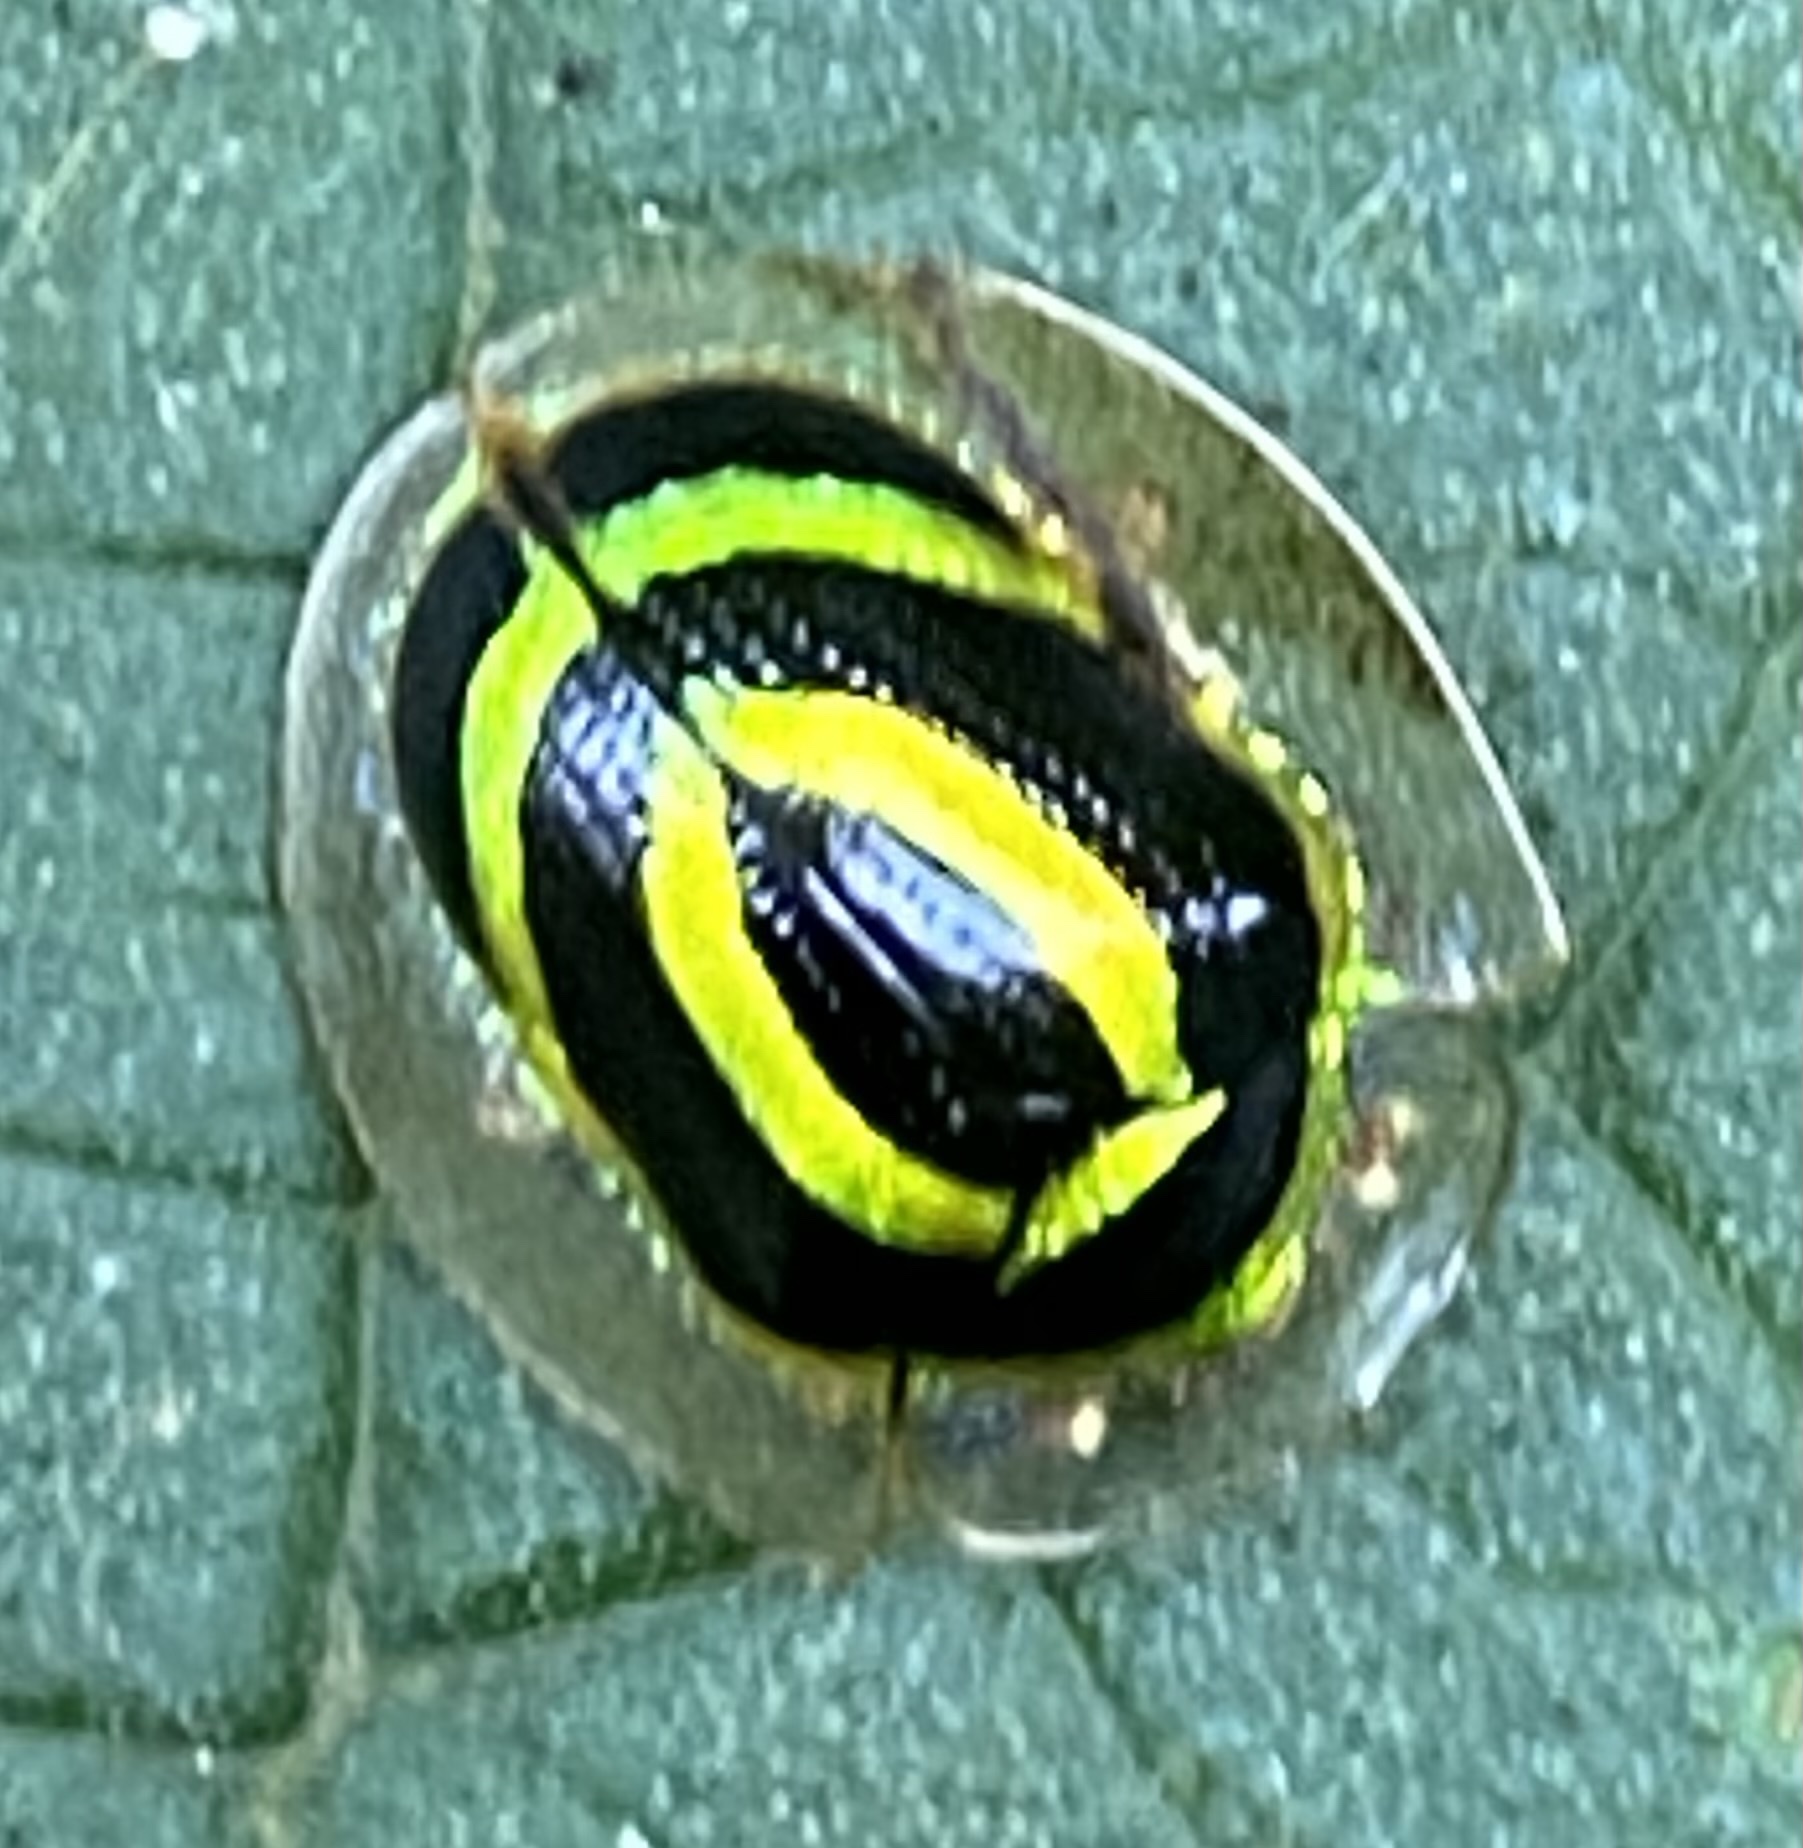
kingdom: Animalia
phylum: Arthropoda
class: Insecta
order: Coleoptera
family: Chrysomelidae
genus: Coptocycla
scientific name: Coptocycla lunifera
